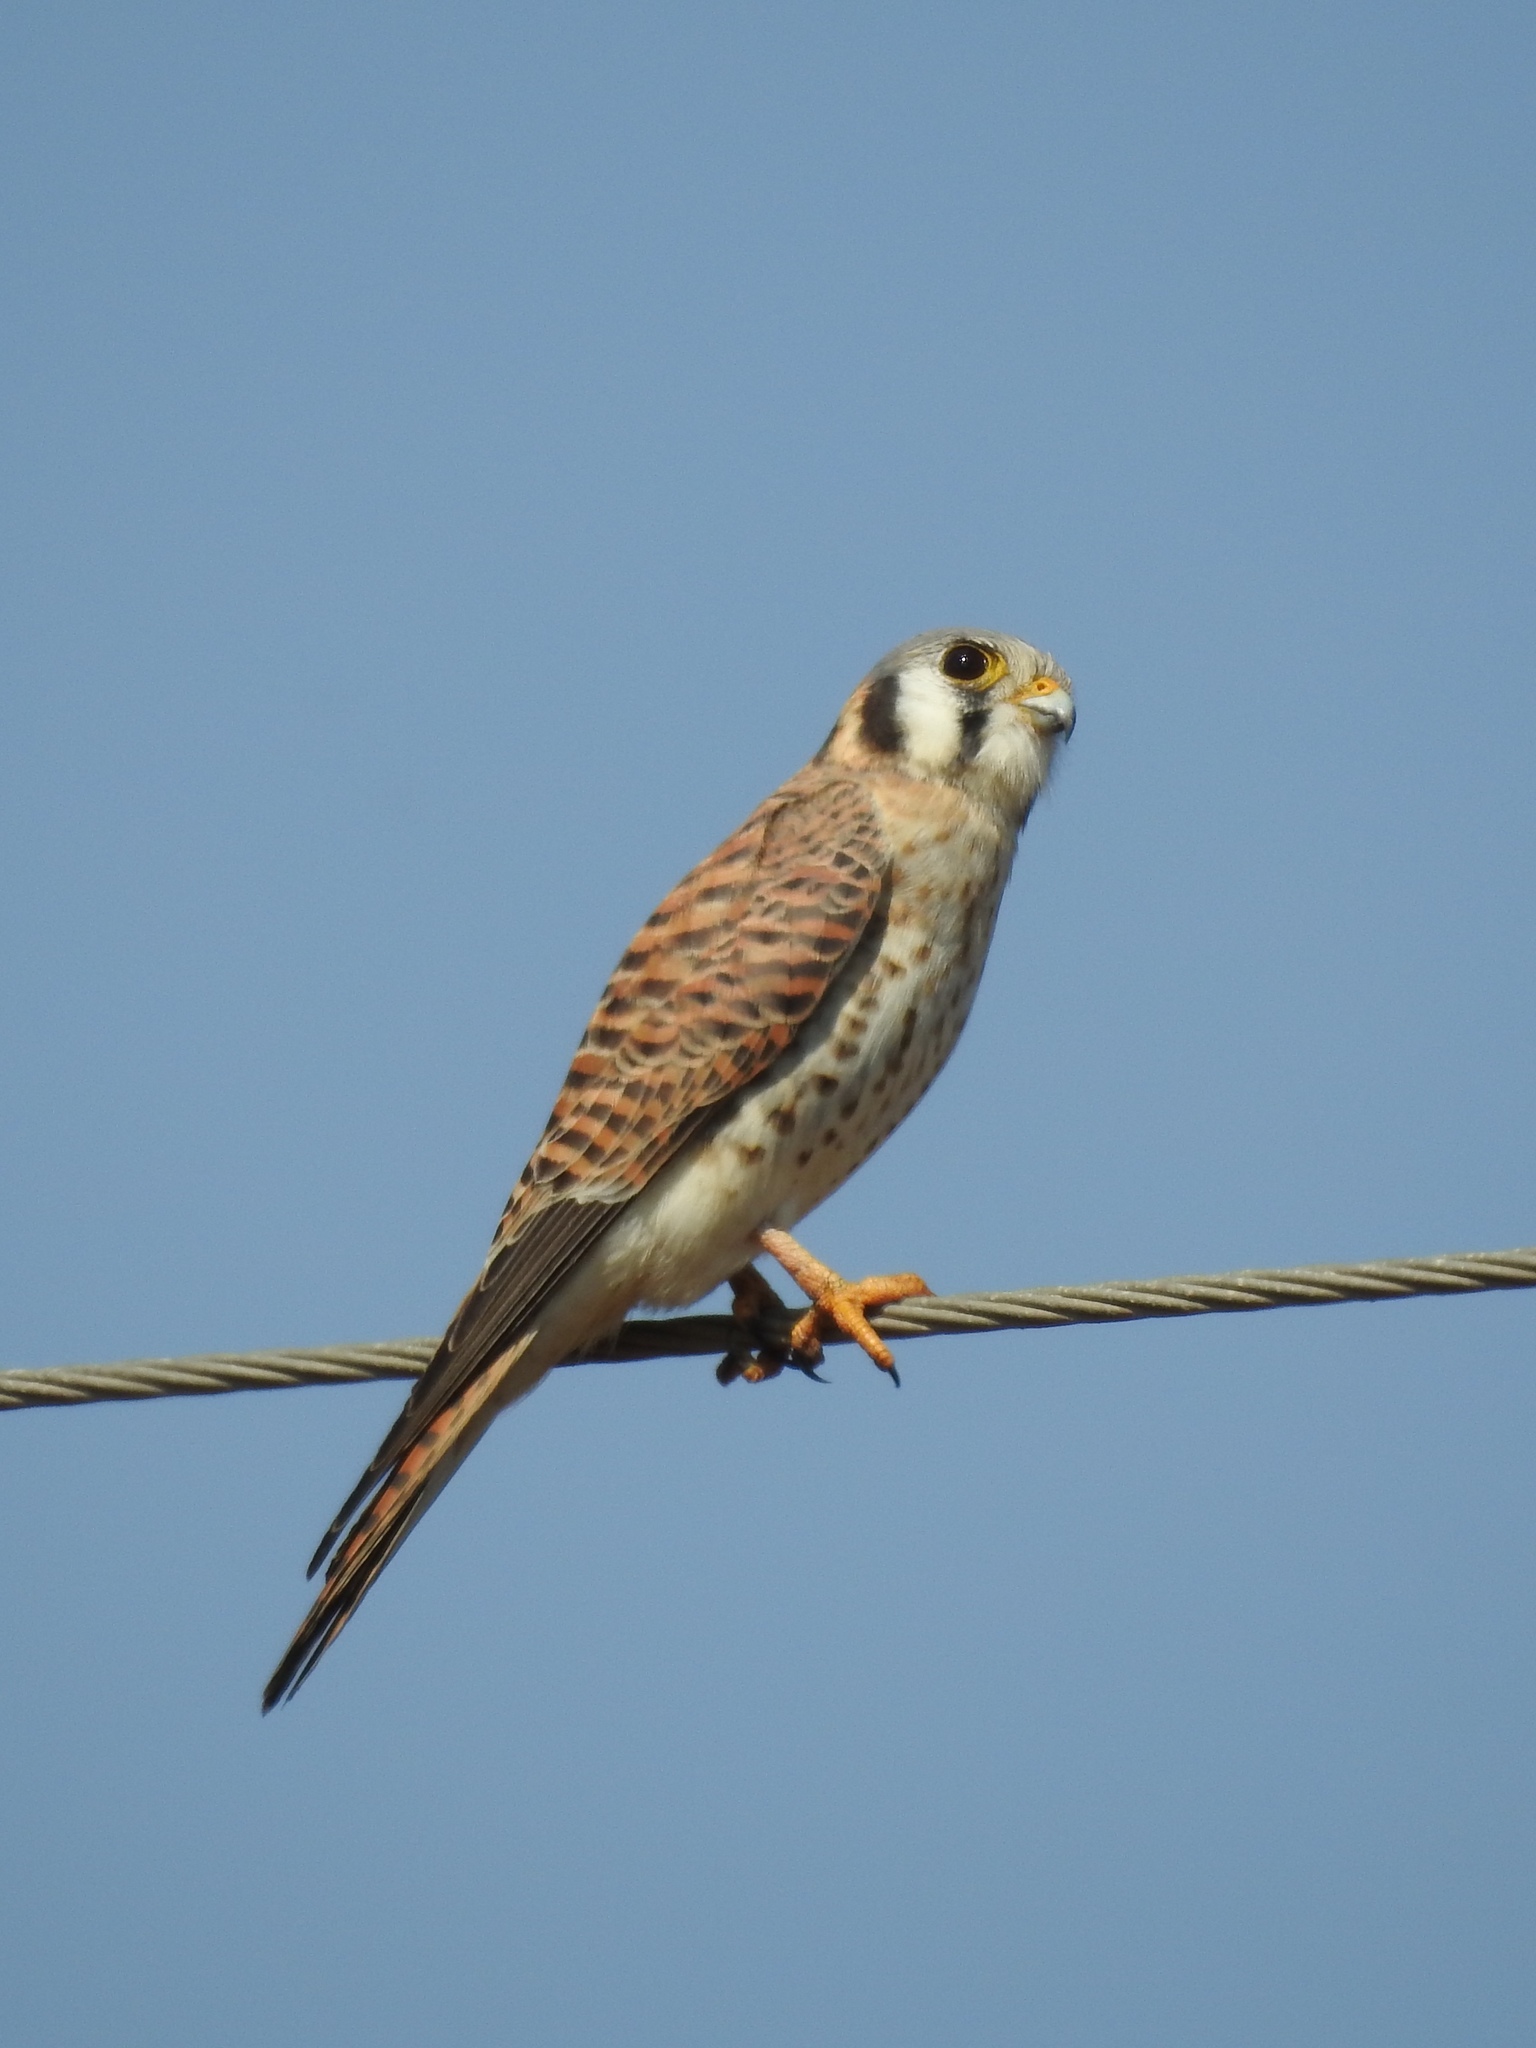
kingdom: Animalia
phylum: Chordata
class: Aves
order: Falconiformes
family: Falconidae
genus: Falco
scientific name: Falco sparverius
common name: American kestrel
